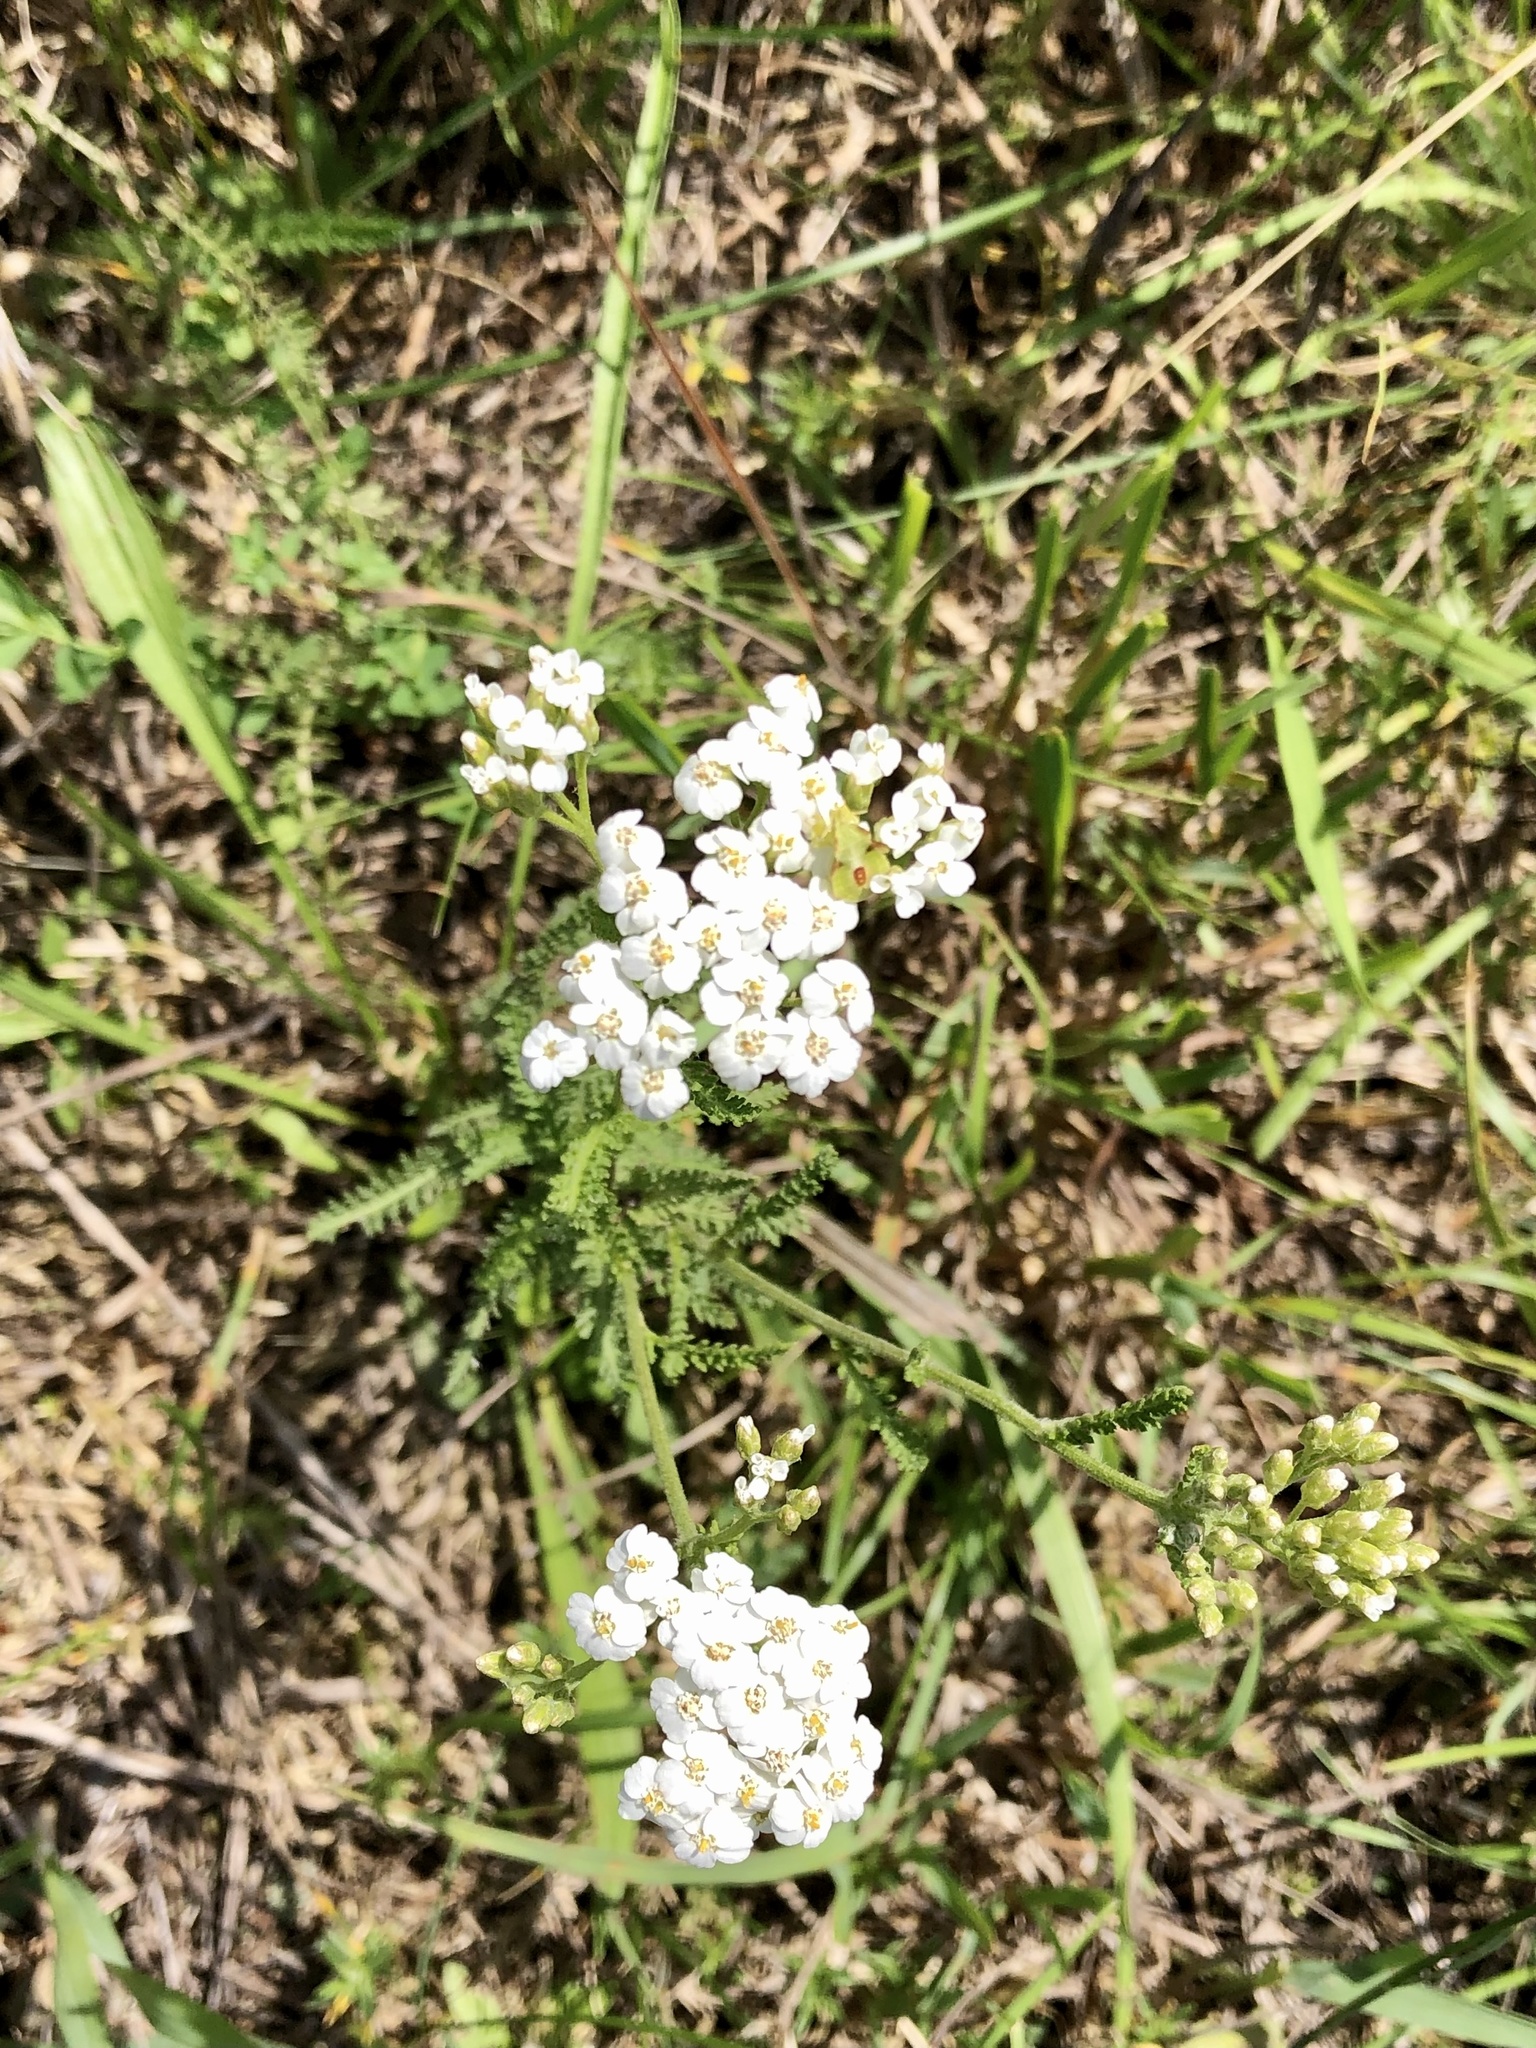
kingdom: Plantae
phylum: Tracheophyta
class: Magnoliopsida
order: Asterales
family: Asteraceae
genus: Achillea
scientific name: Achillea millefolium
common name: Yarrow
